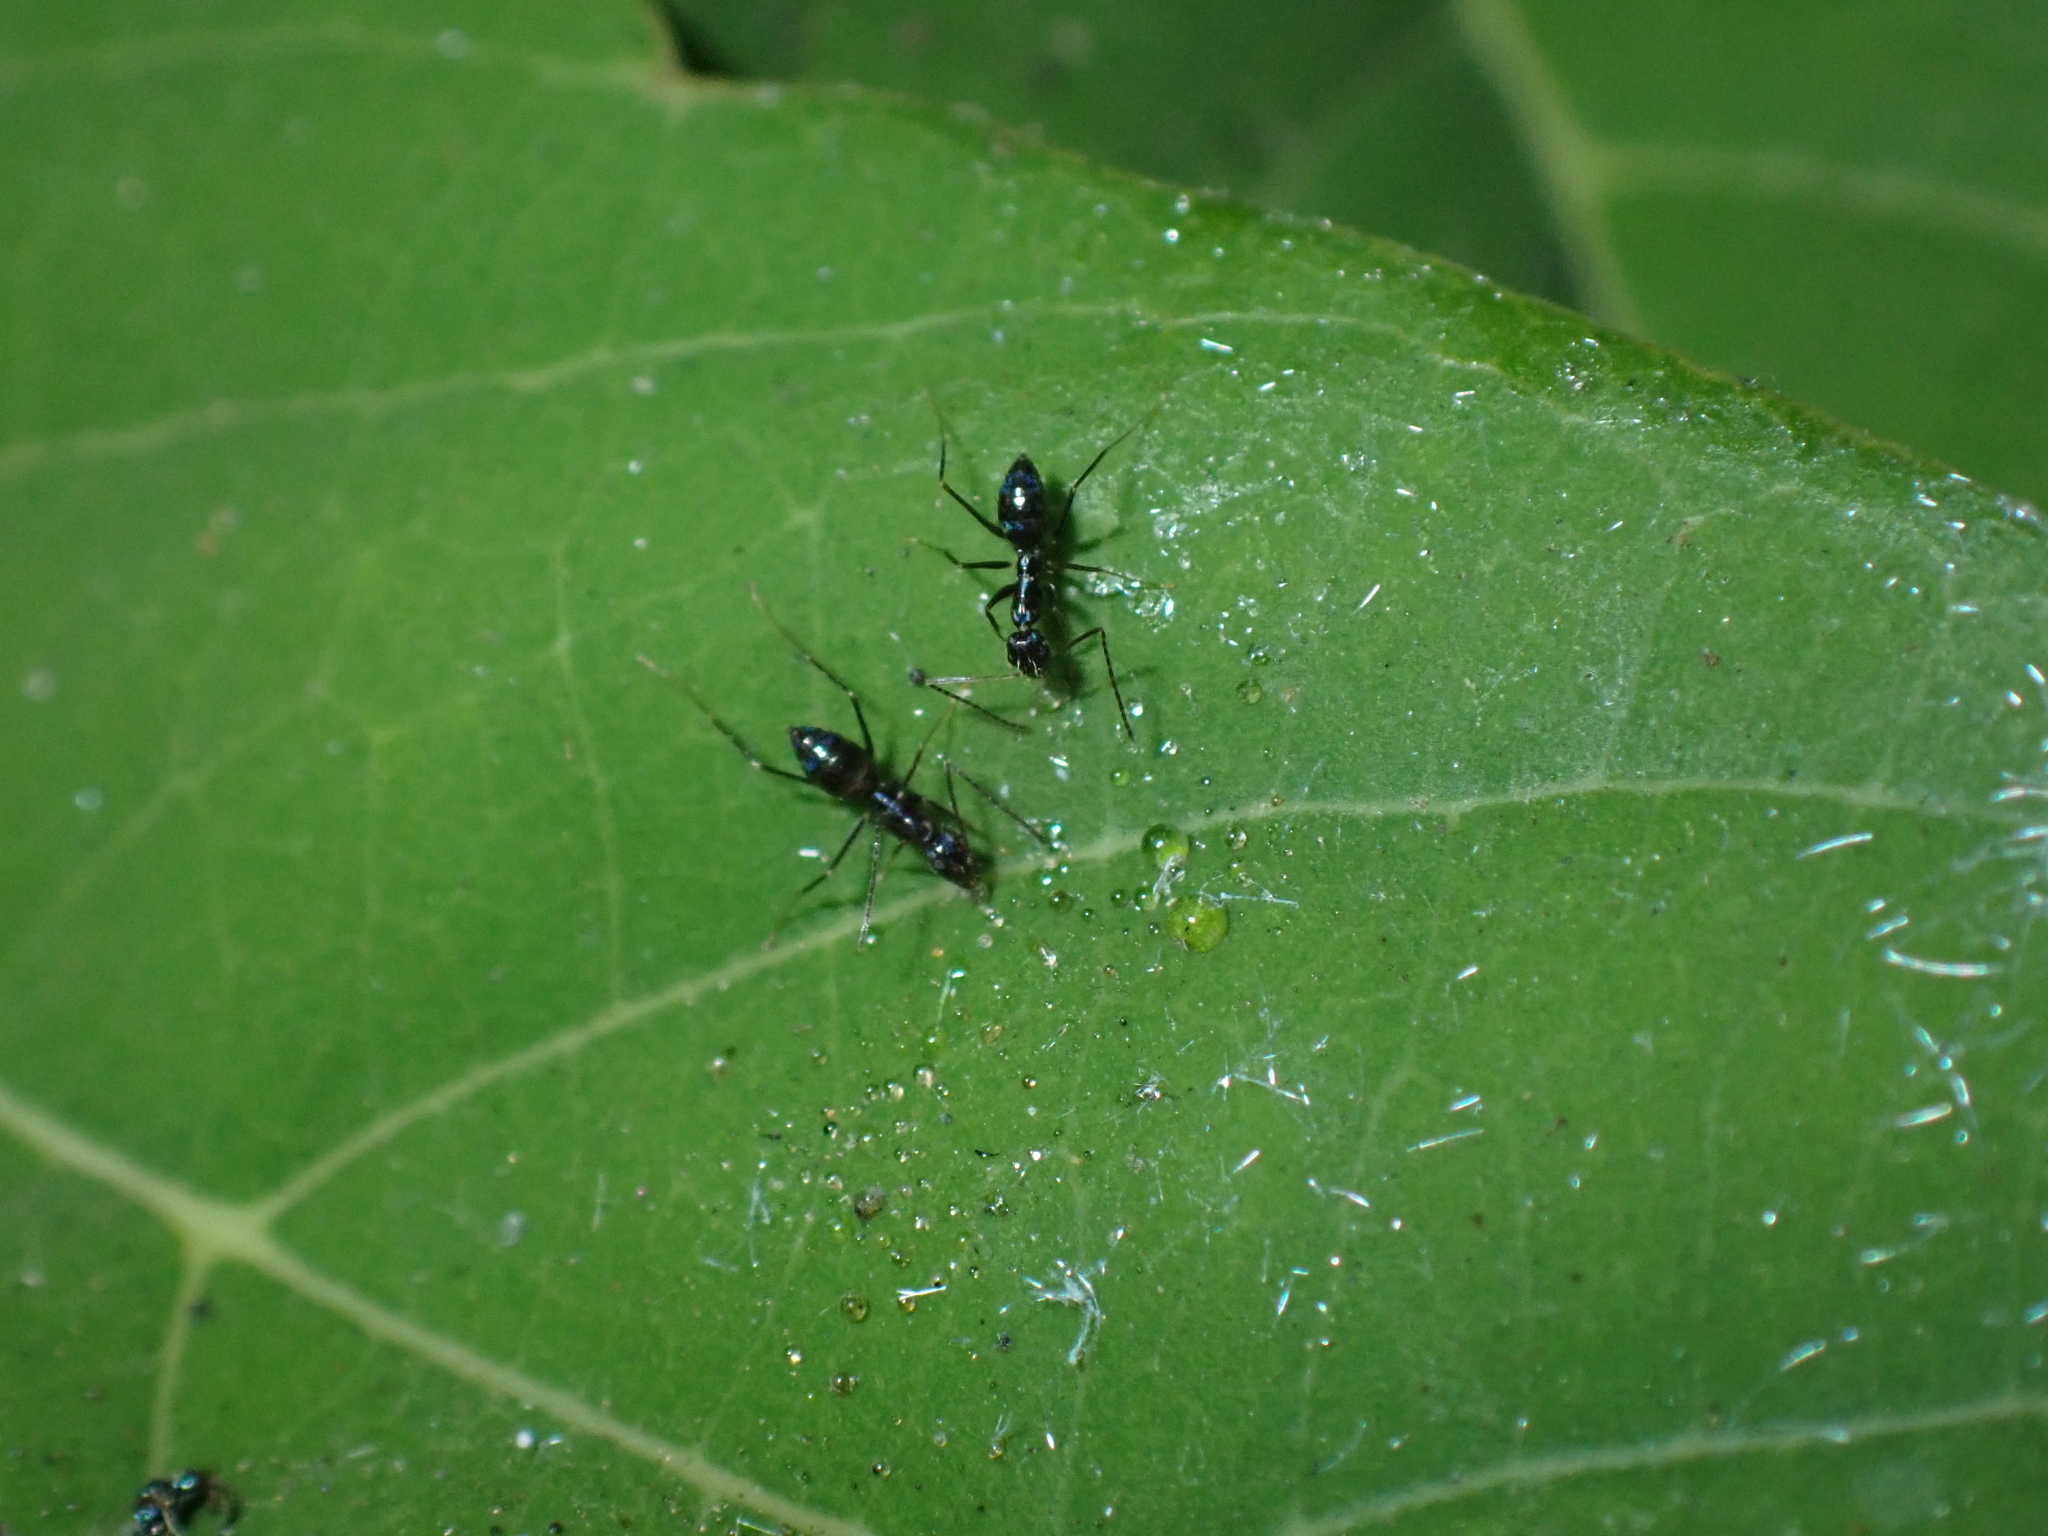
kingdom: Animalia
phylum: Arthropoda
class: Insecta
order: Hymenoptera
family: Formicidae
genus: Paratrechina
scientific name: Paratrechina longicornis
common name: Longhorned crazy ant
